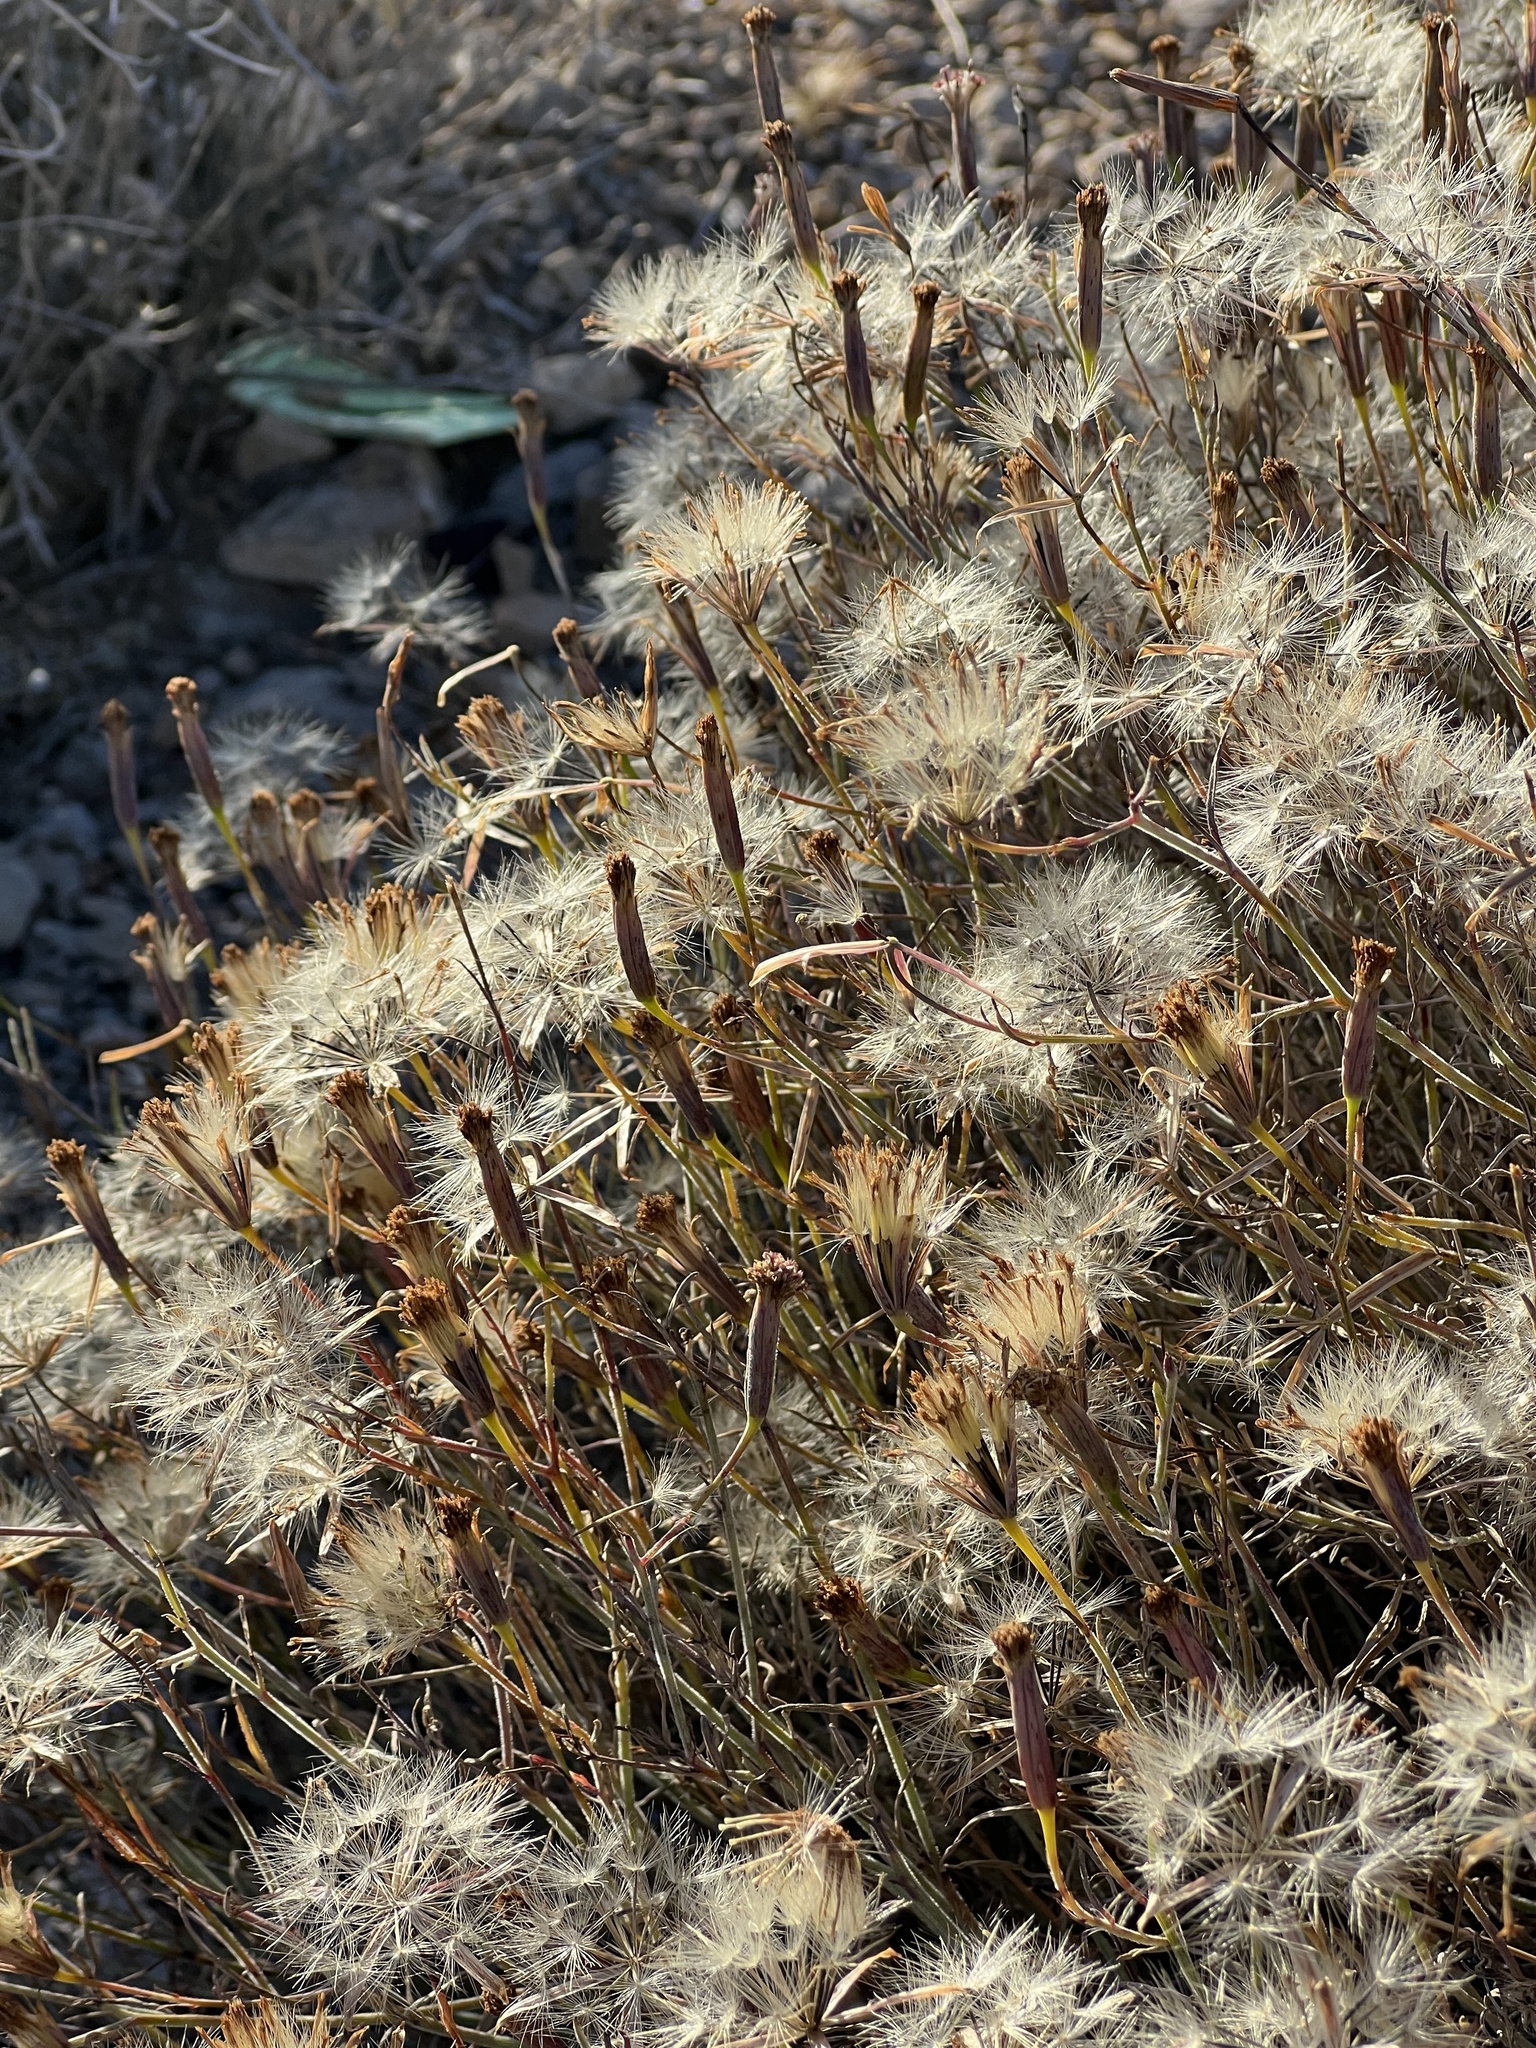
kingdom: Plantae
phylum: Tracheophyta
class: Magnoliopsida
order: Asterales
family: Asteraceae
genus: Porophyllum
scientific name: Porophyllum gracile
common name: Odora
